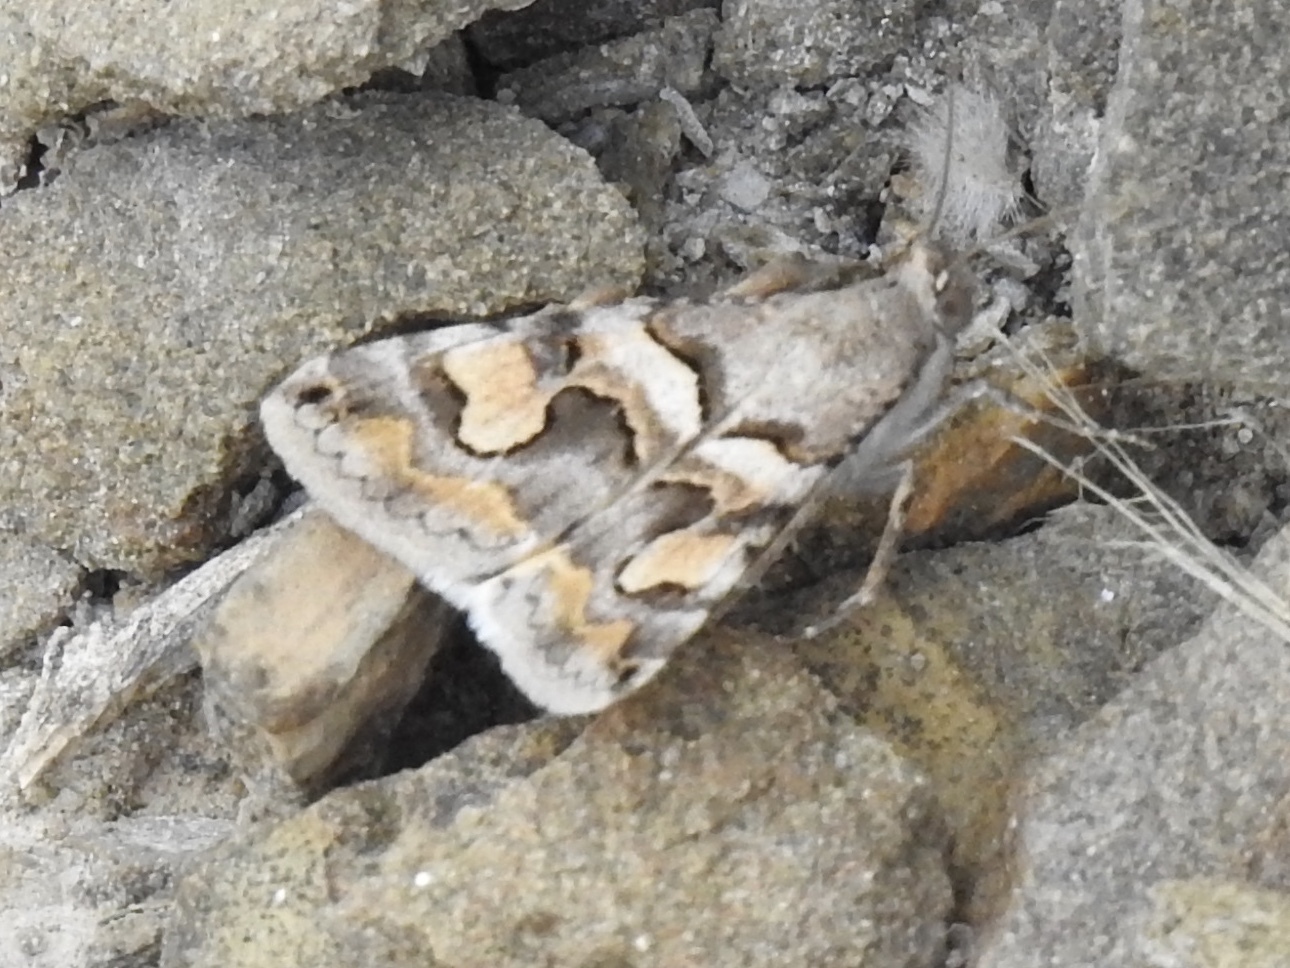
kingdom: Animalia
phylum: Arthropoda
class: Insecta
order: Lepidoptera
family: Erebidae
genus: Bulia
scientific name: Bulia deducta
